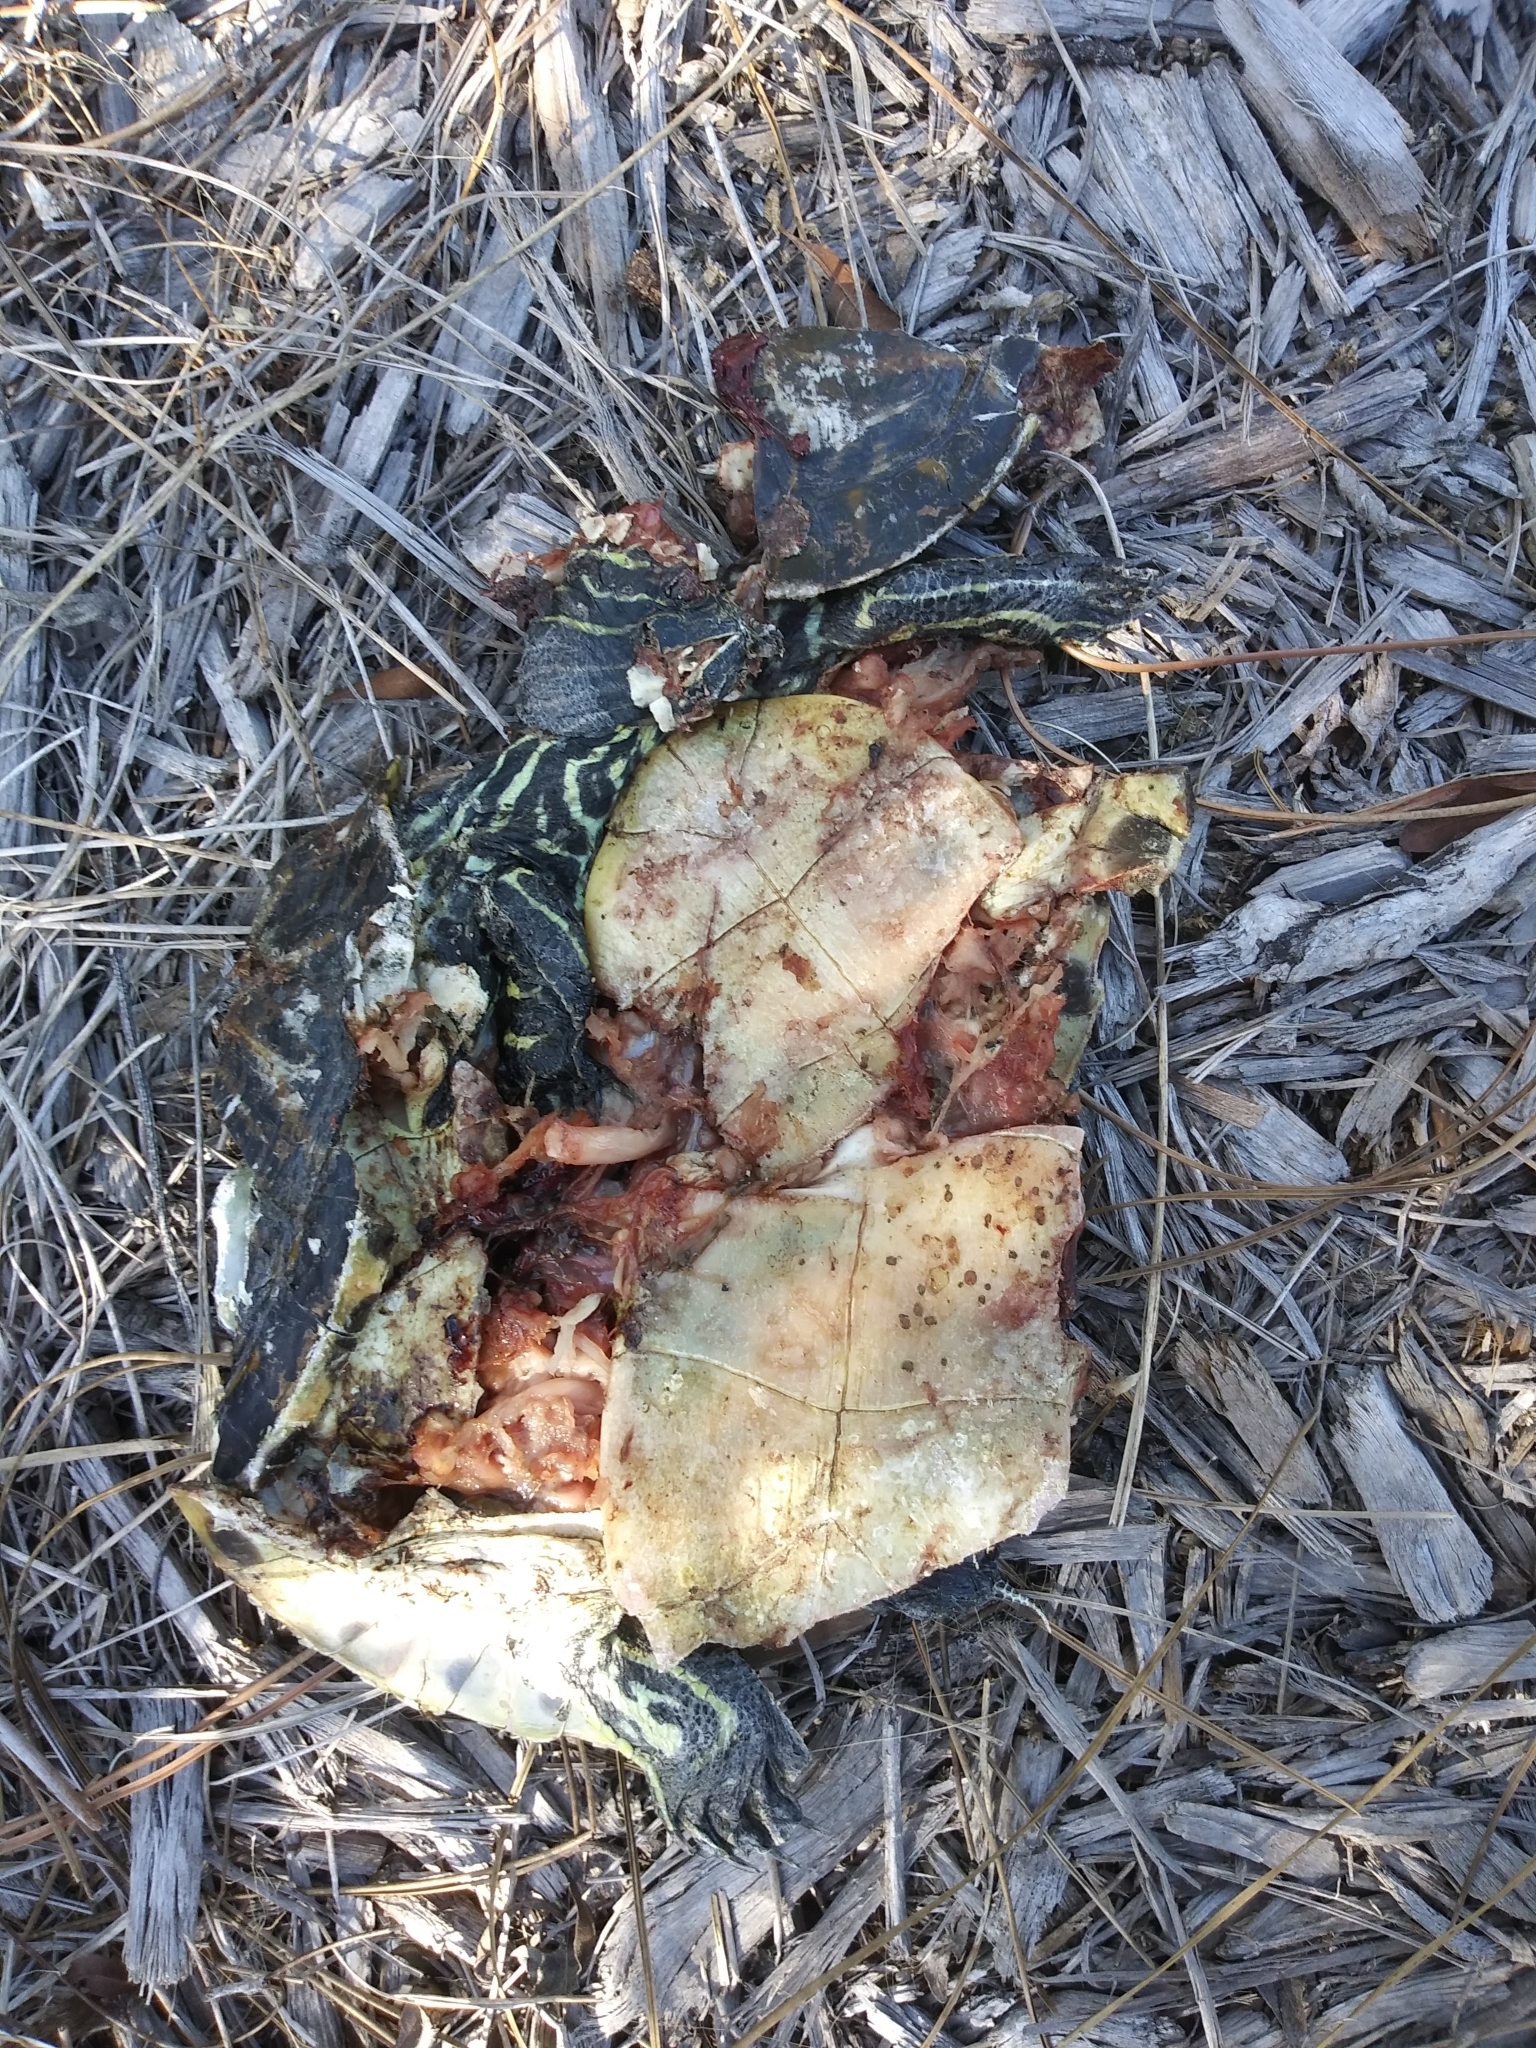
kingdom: Animalia
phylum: Chordata
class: Testudines
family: Emydidae
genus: Deirochelys
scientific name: Deirochelys reticularia
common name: Chicken turtle
